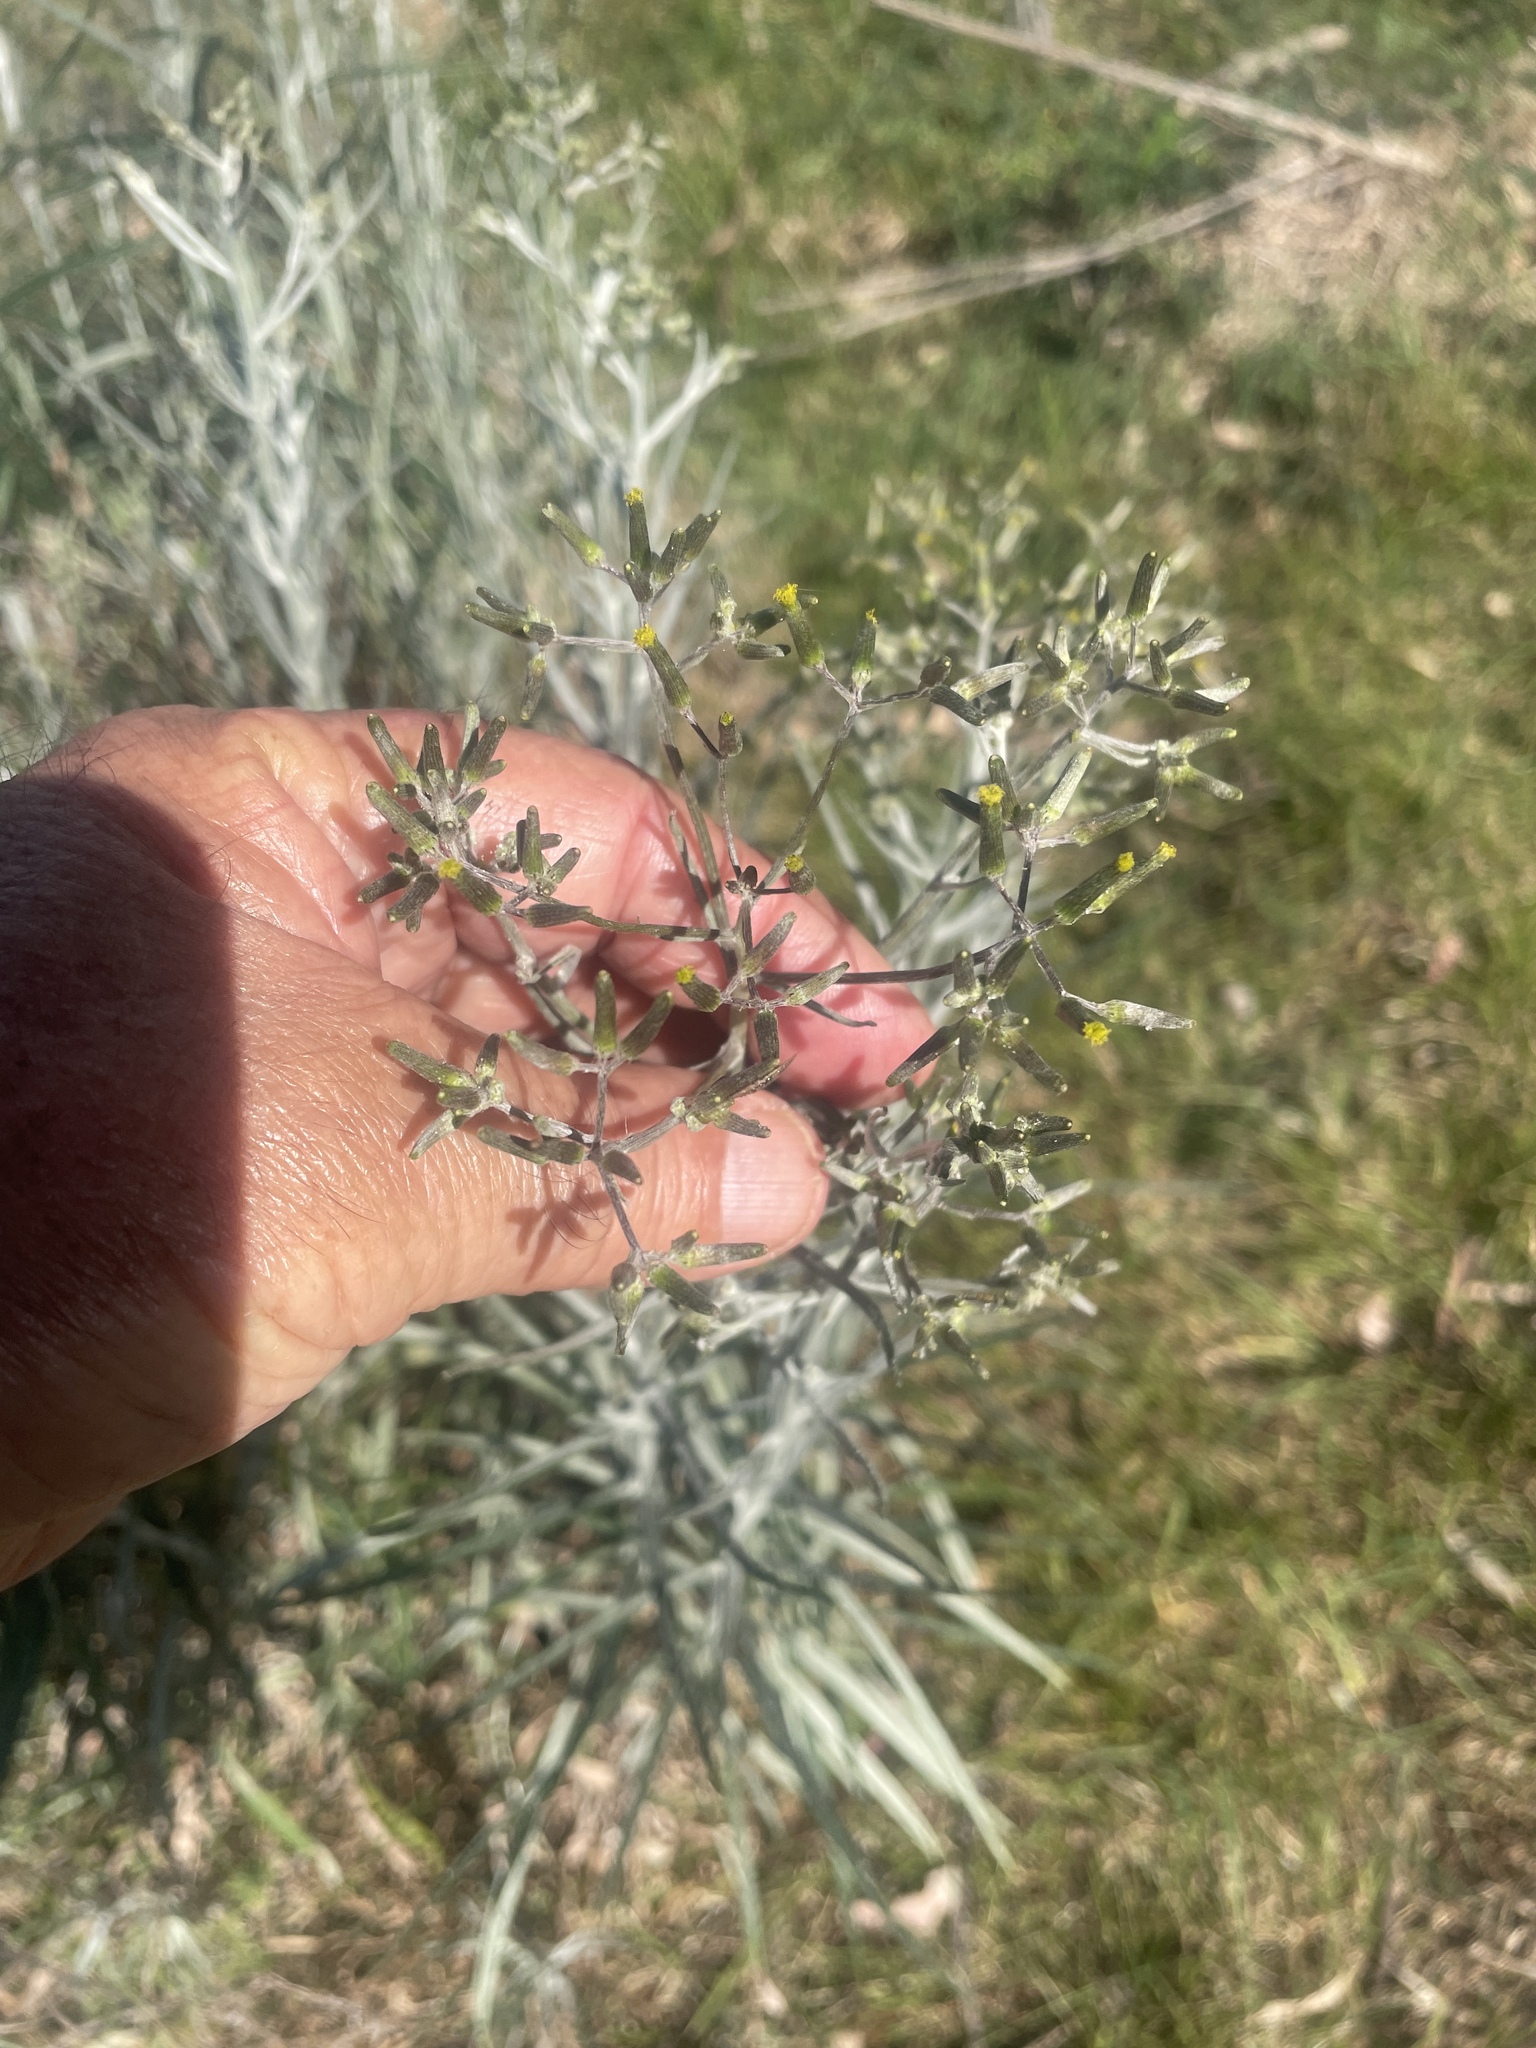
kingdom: Plantae
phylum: Tracheophyta
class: Magnoliopsida
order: Asterales
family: Asteraceae
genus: Senecio
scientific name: Senecio quadridentatus
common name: Cotton fireweed
